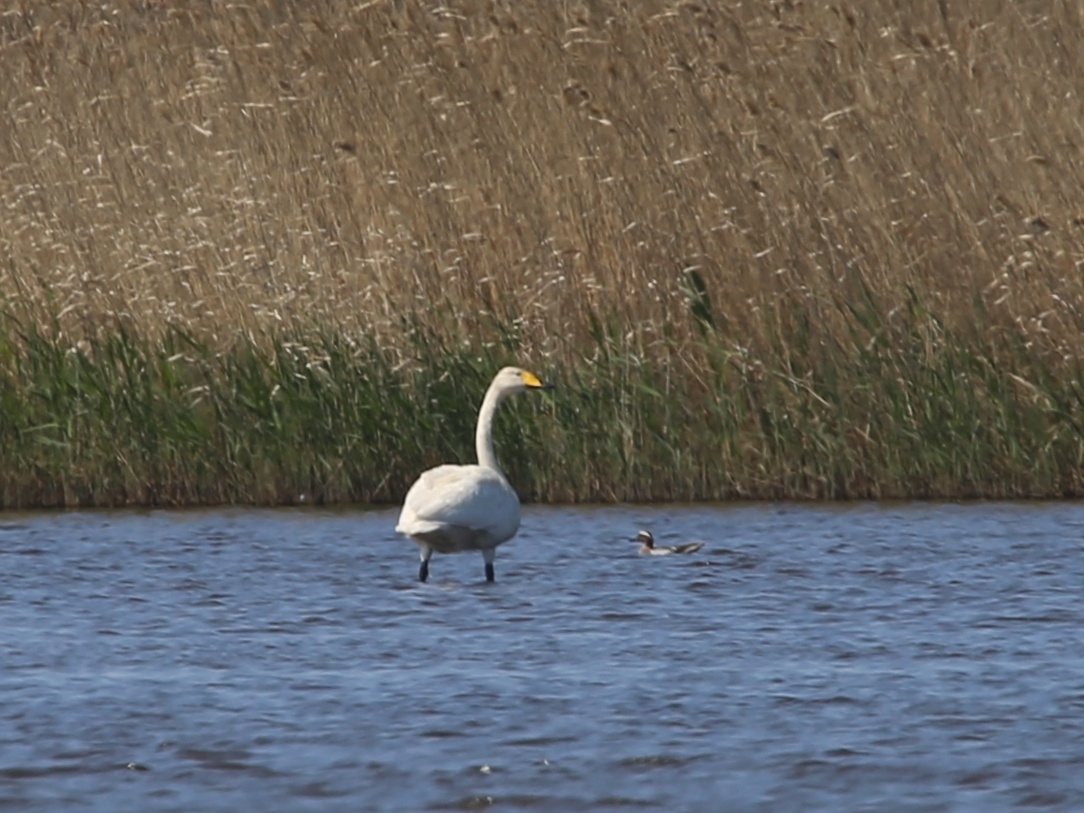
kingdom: Animalia
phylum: Chordata
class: Aves
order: Anseriformes
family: Anatidae
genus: Cygnus
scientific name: Cygnus cygnus
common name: Whooper swan
